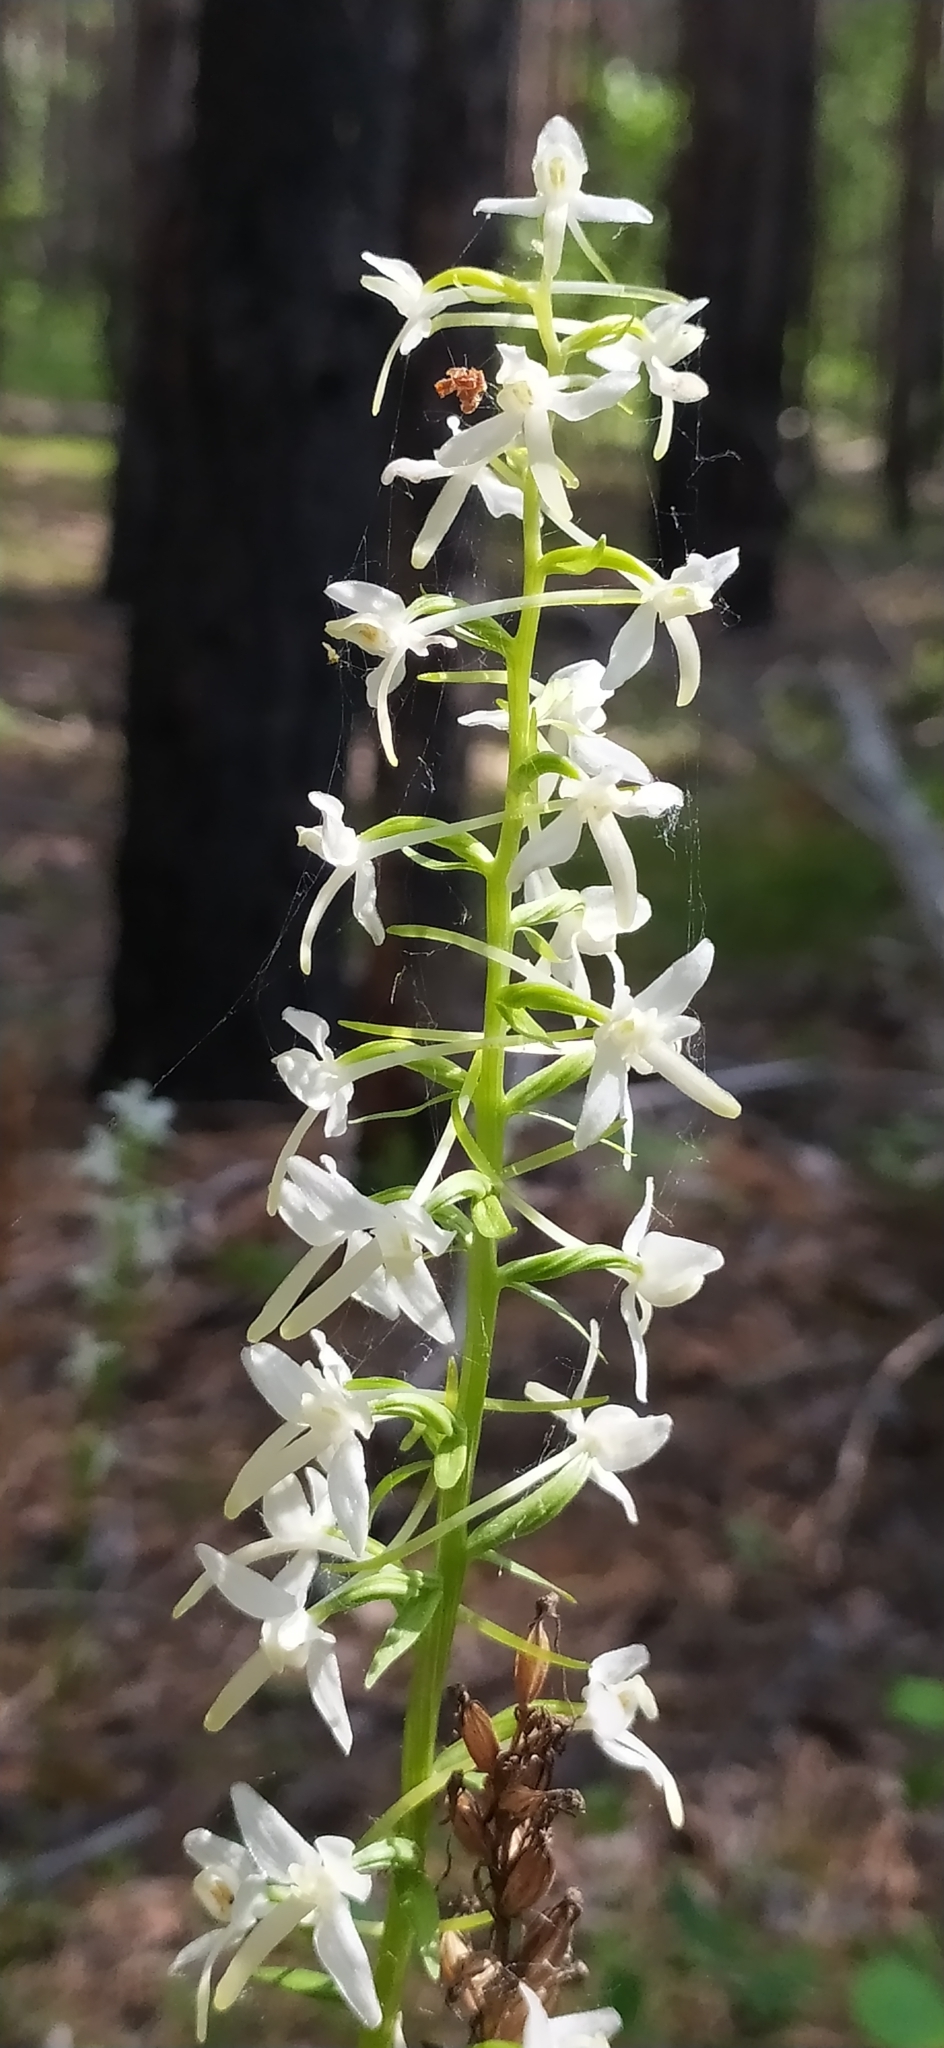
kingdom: Plantae
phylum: Tracheophyta
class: Liliopsida
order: Asparagales
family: Orchidaceae
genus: Platanthera
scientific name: Platanthera bifolia
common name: Lesser butterfly-orchid
